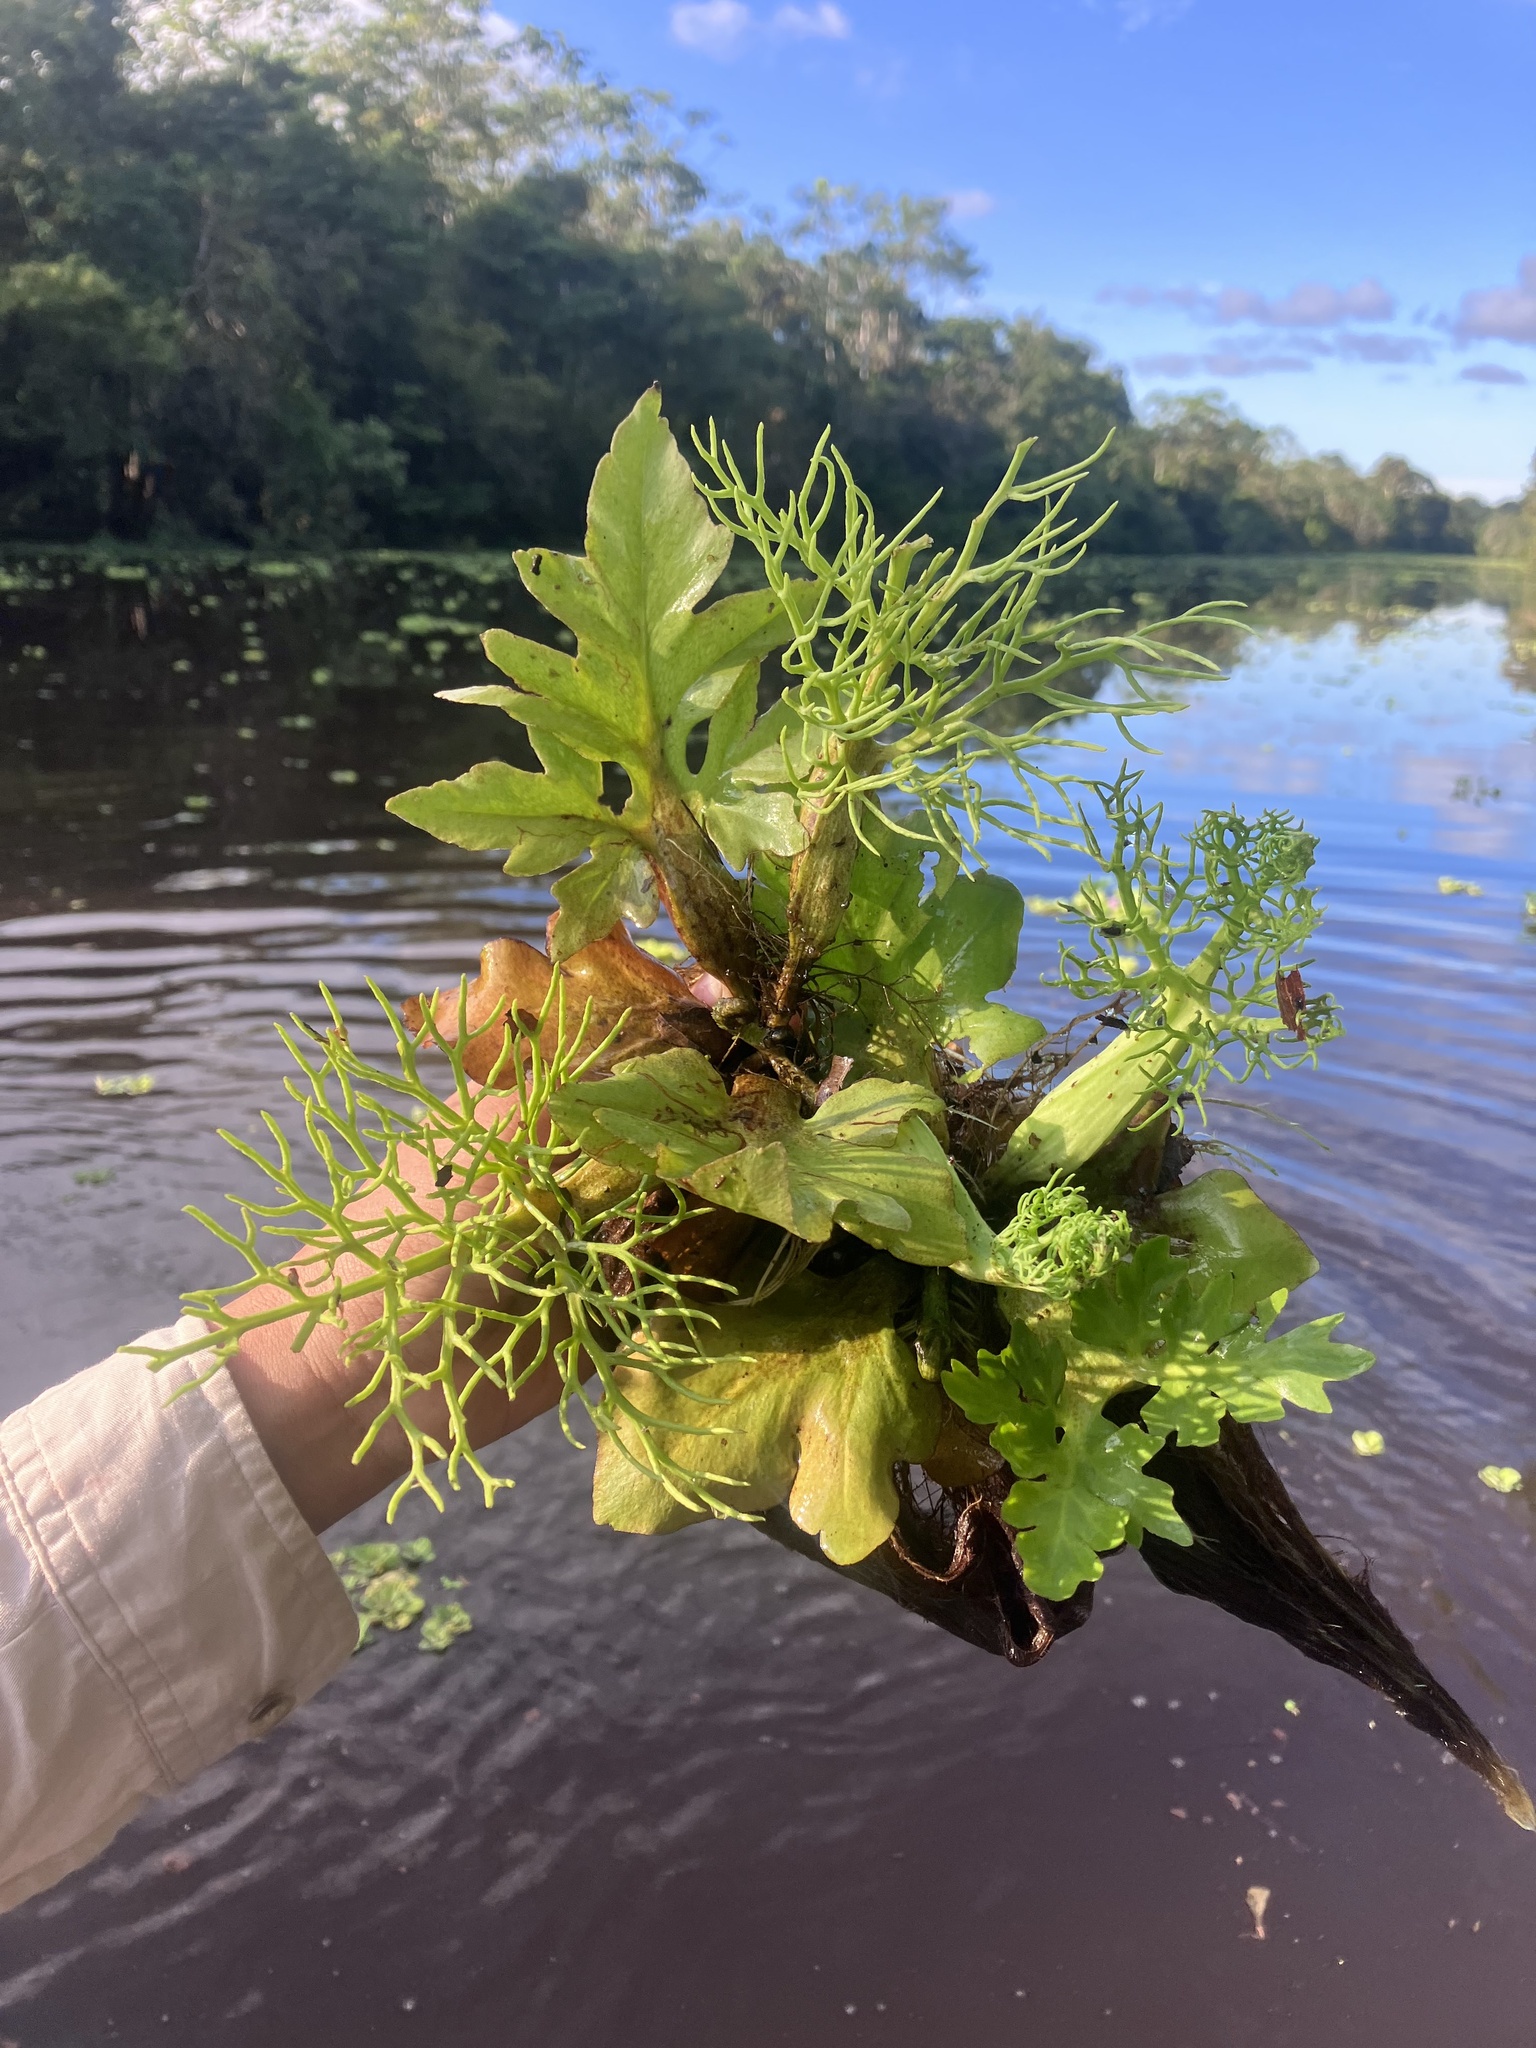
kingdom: Plantae
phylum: Tracheophyta
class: Polypodiopsida
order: Polypodiales
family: Pteridaceae
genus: Ceratopteris
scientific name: Ceratopteris pteridoides
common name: Floating fern
